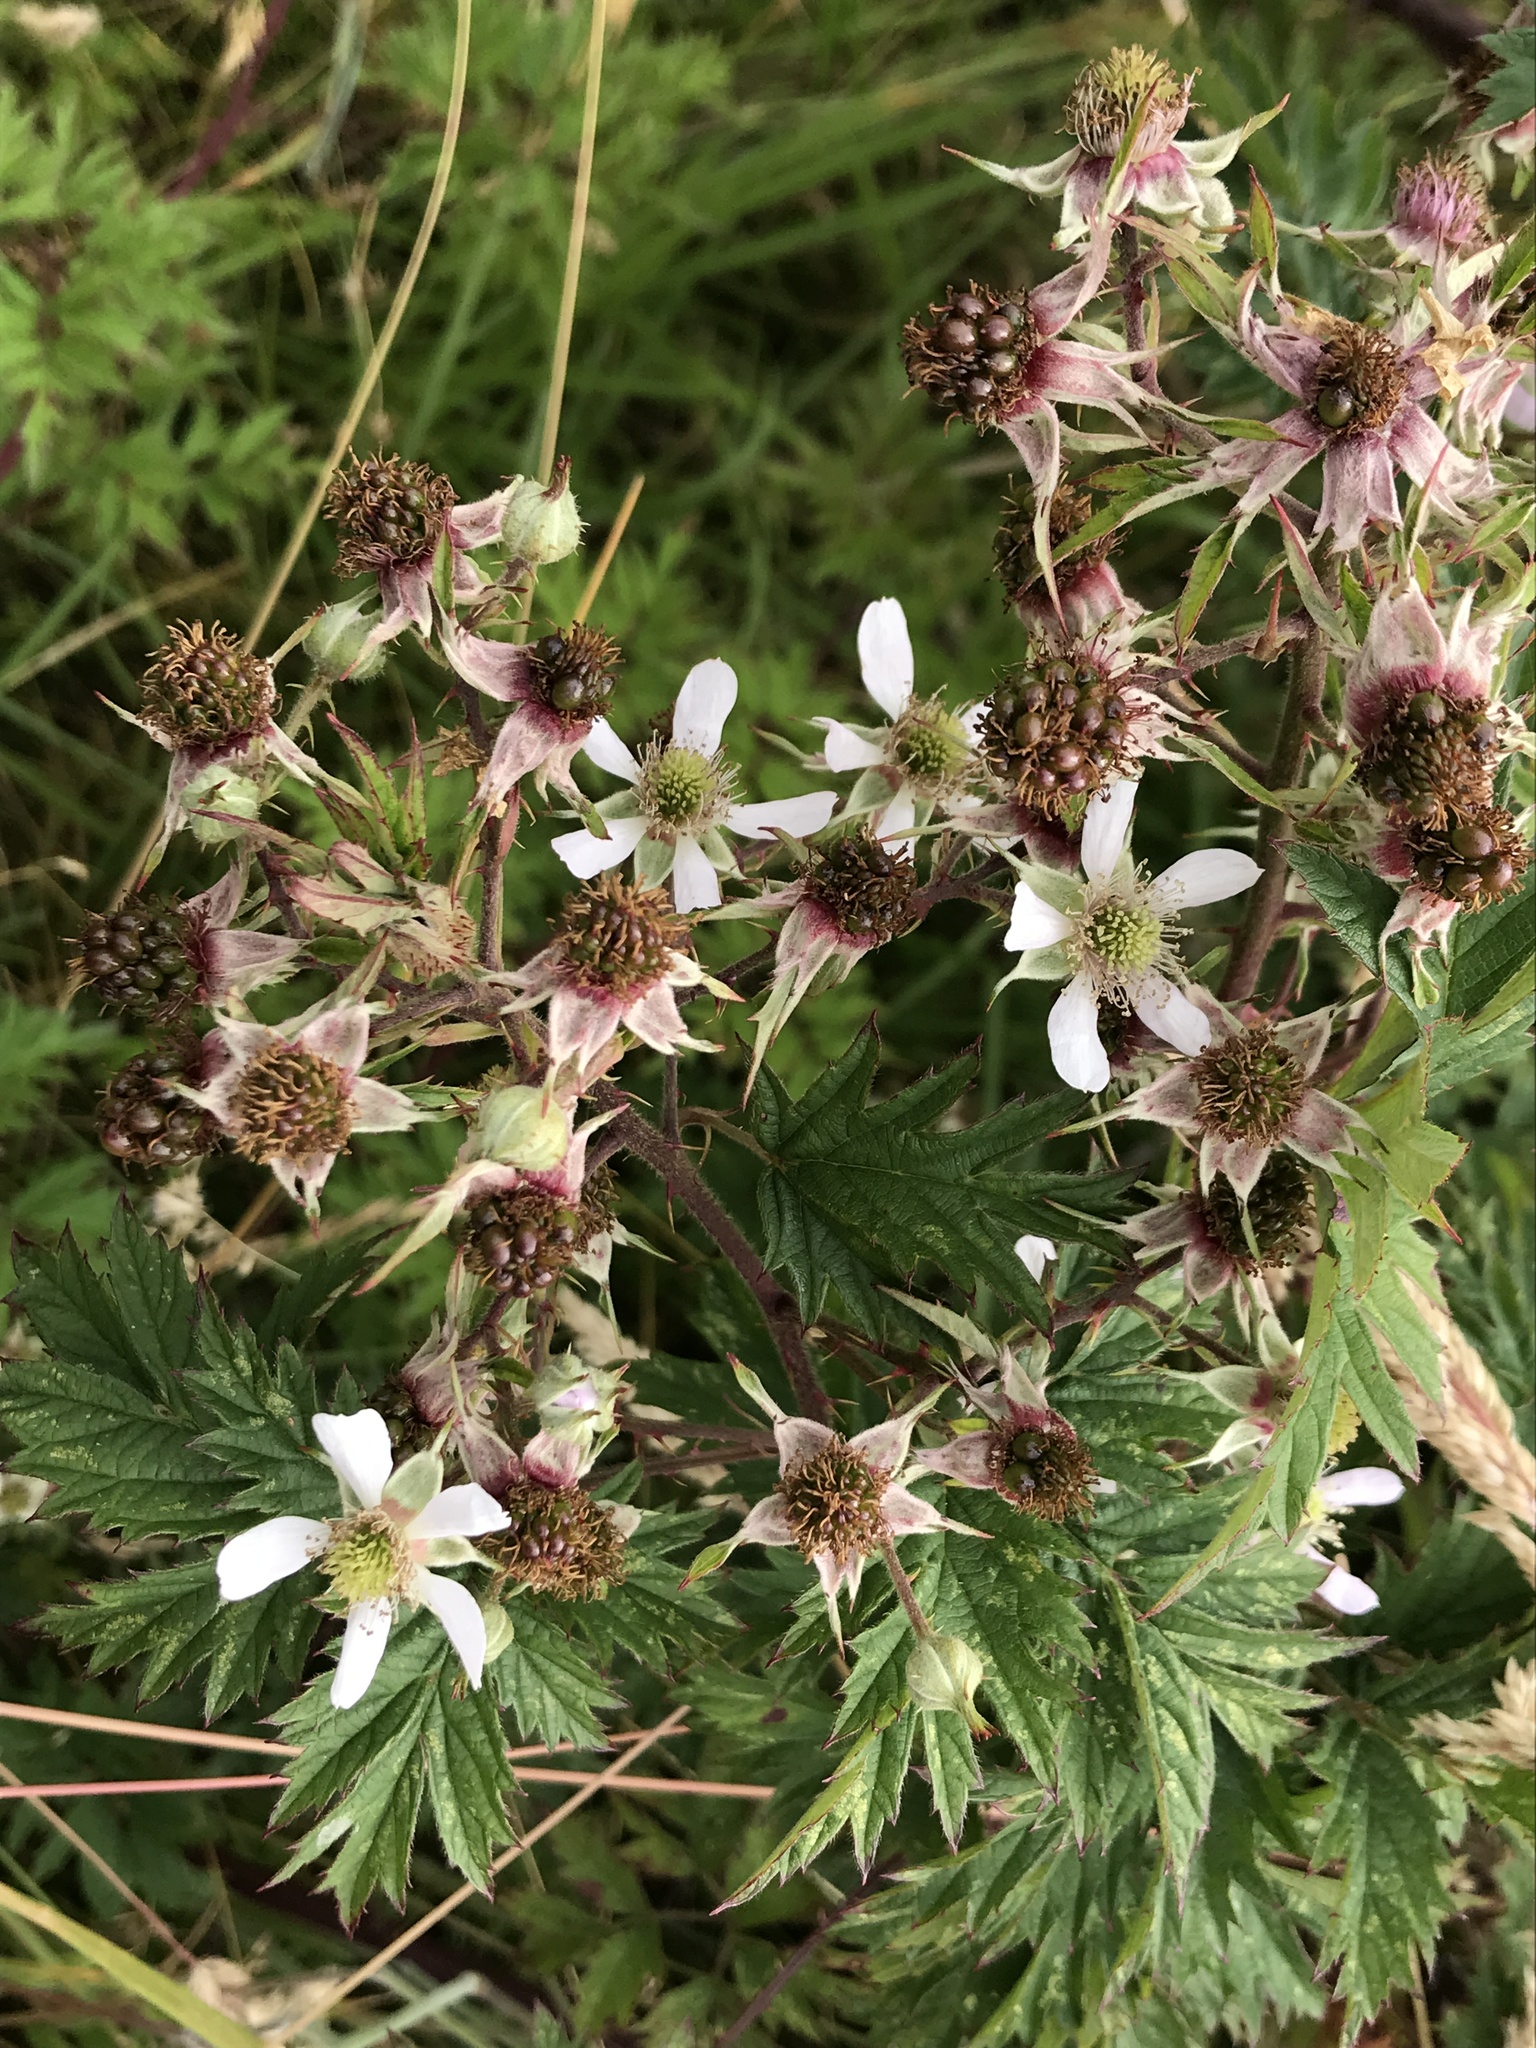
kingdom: Plantae
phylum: Tracheophyta
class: Magnoliopsida
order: Rosales
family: Rosaceae
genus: Rubus
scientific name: Rubus laciniatus
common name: Evergreen blackberry
